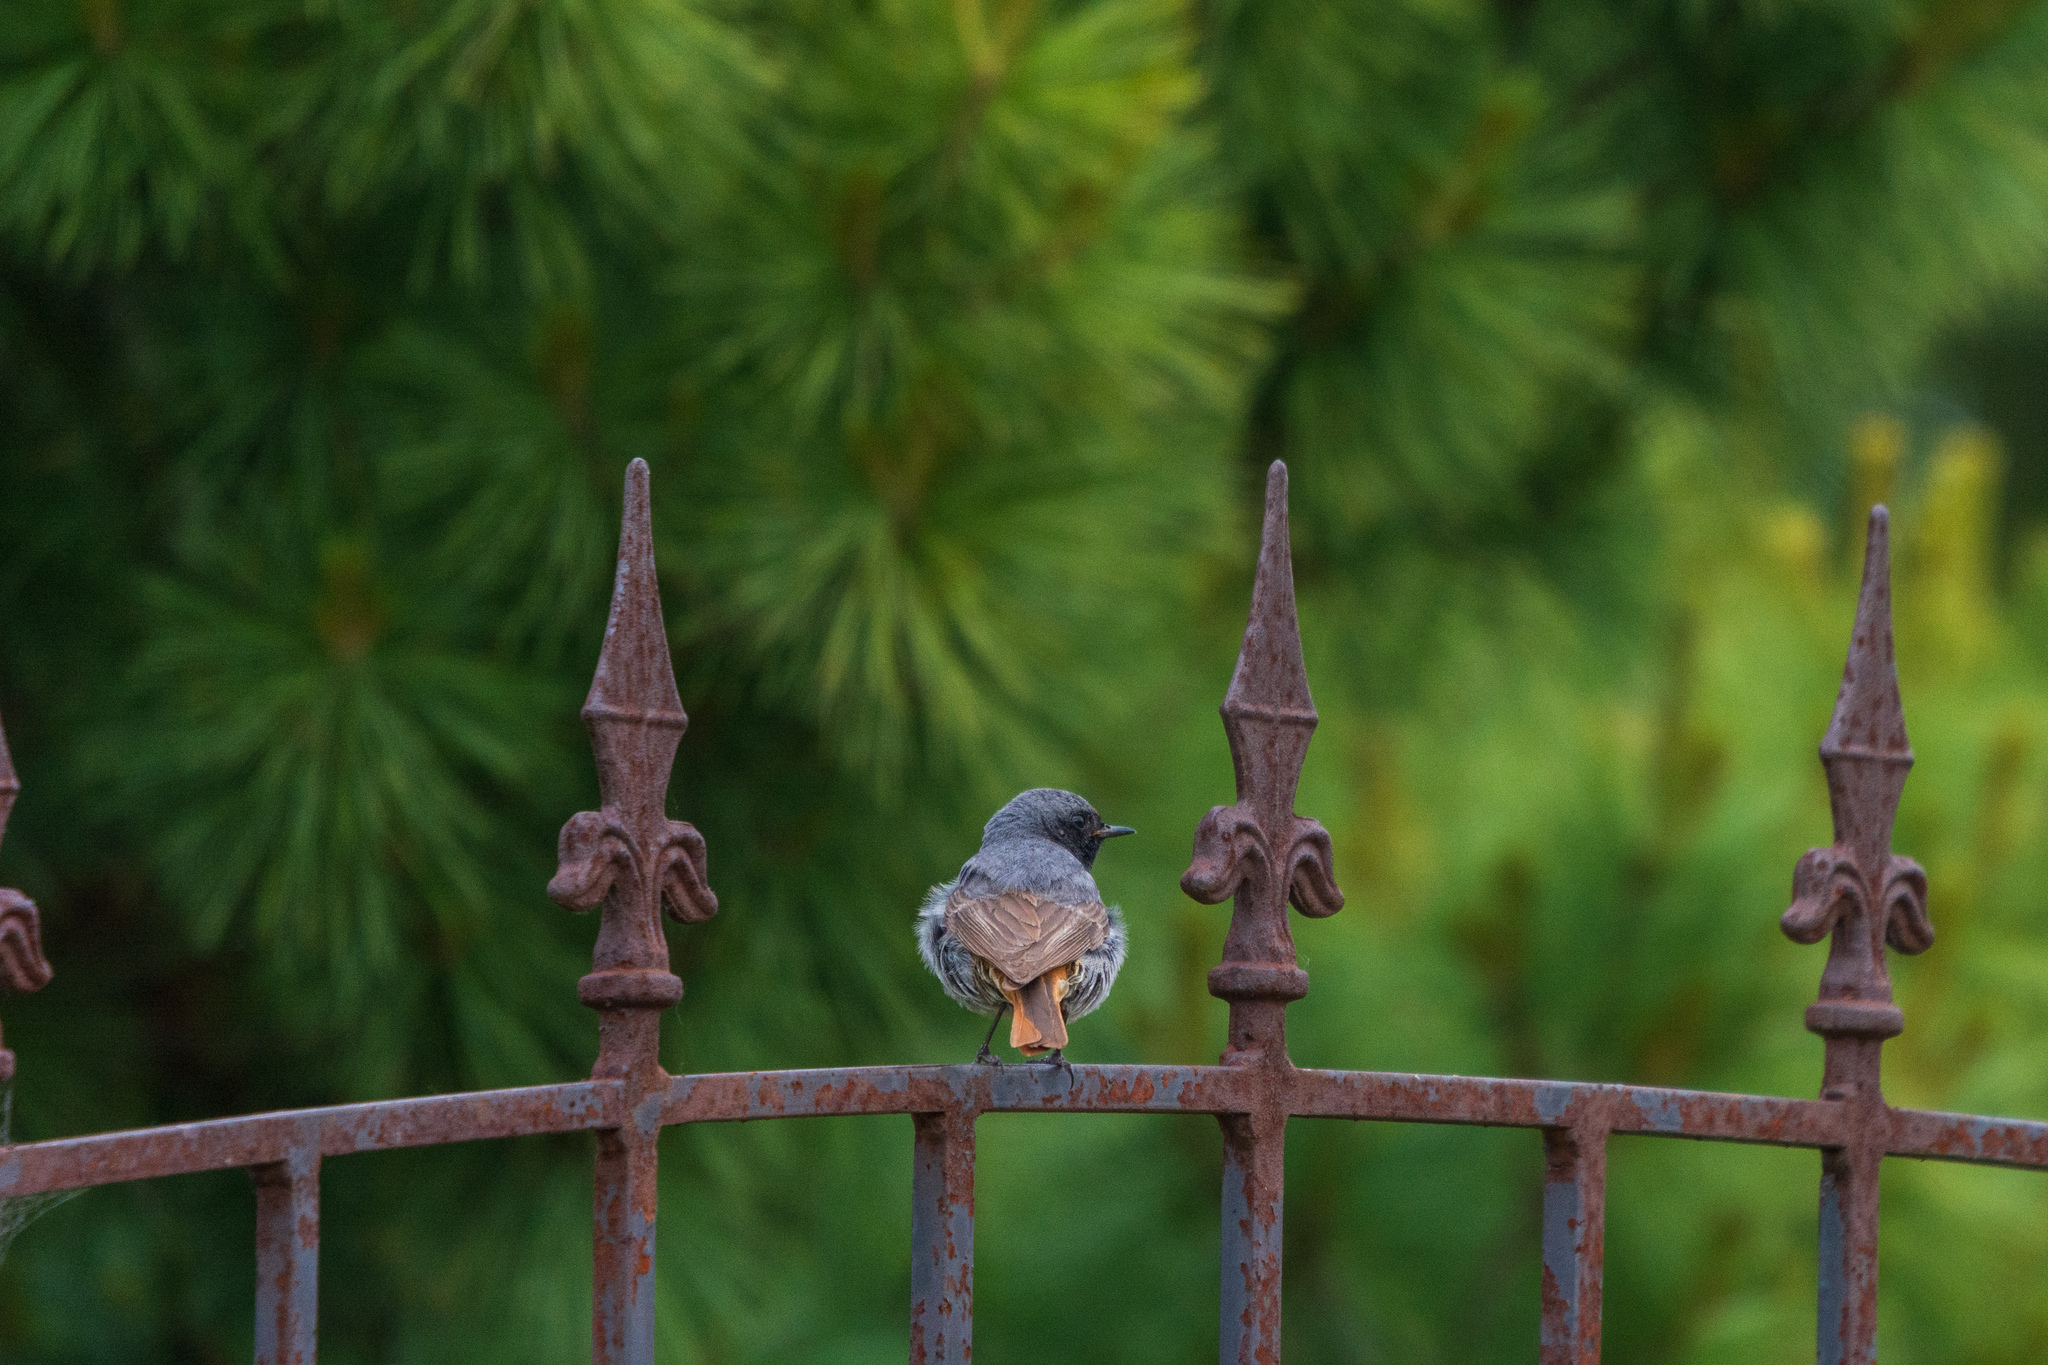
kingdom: Animalia
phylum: Chordata
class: Aves
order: Passeriformes
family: Muscicapidae
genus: Phoenicurus
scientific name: Phoenicurus ochruros
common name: Black redstart
